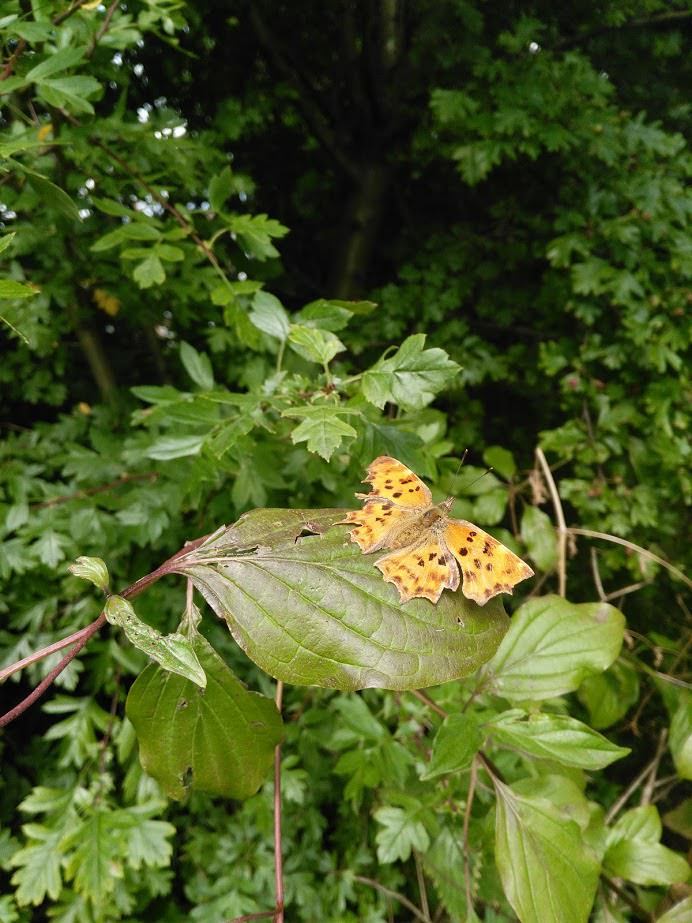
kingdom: Animalia
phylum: Arthropoda
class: Insecta
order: Lepidoptera
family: Nymphalidae
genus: Polygonia
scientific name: Polygonia c-album
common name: Comma
